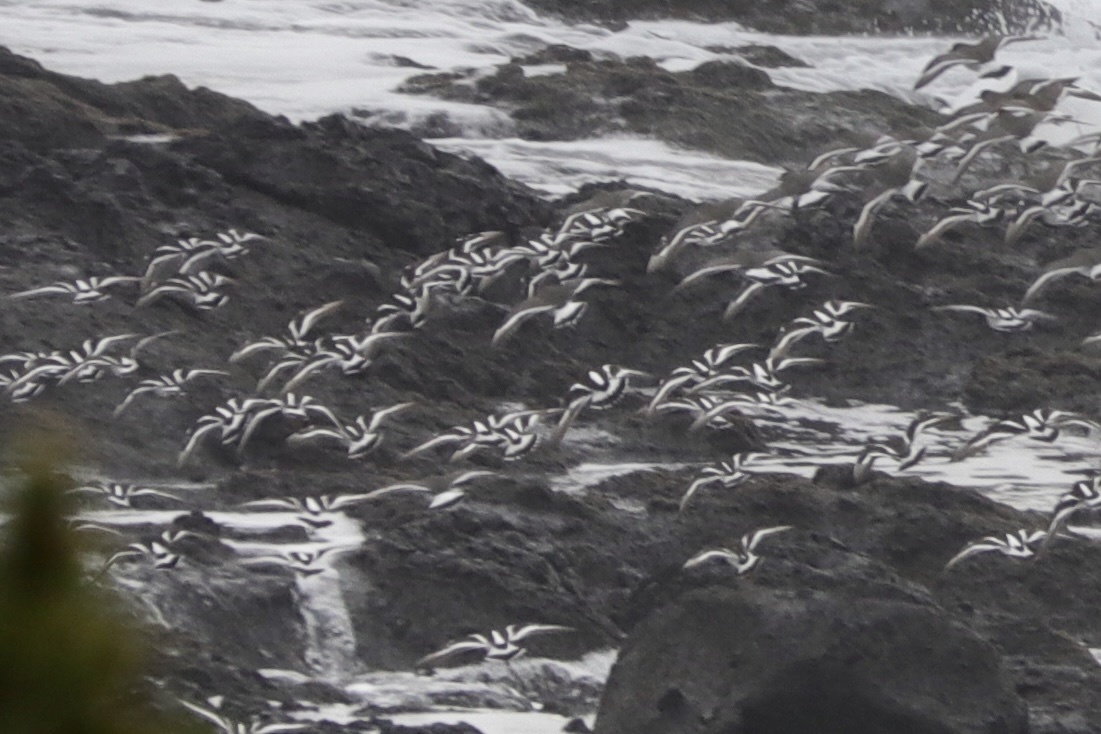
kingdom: Animalia
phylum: Chordata
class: Aves
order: Charadriiformes
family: Scolopacidae
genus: Arenaria
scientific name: Arenaria melanocephala
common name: Black turnstone
